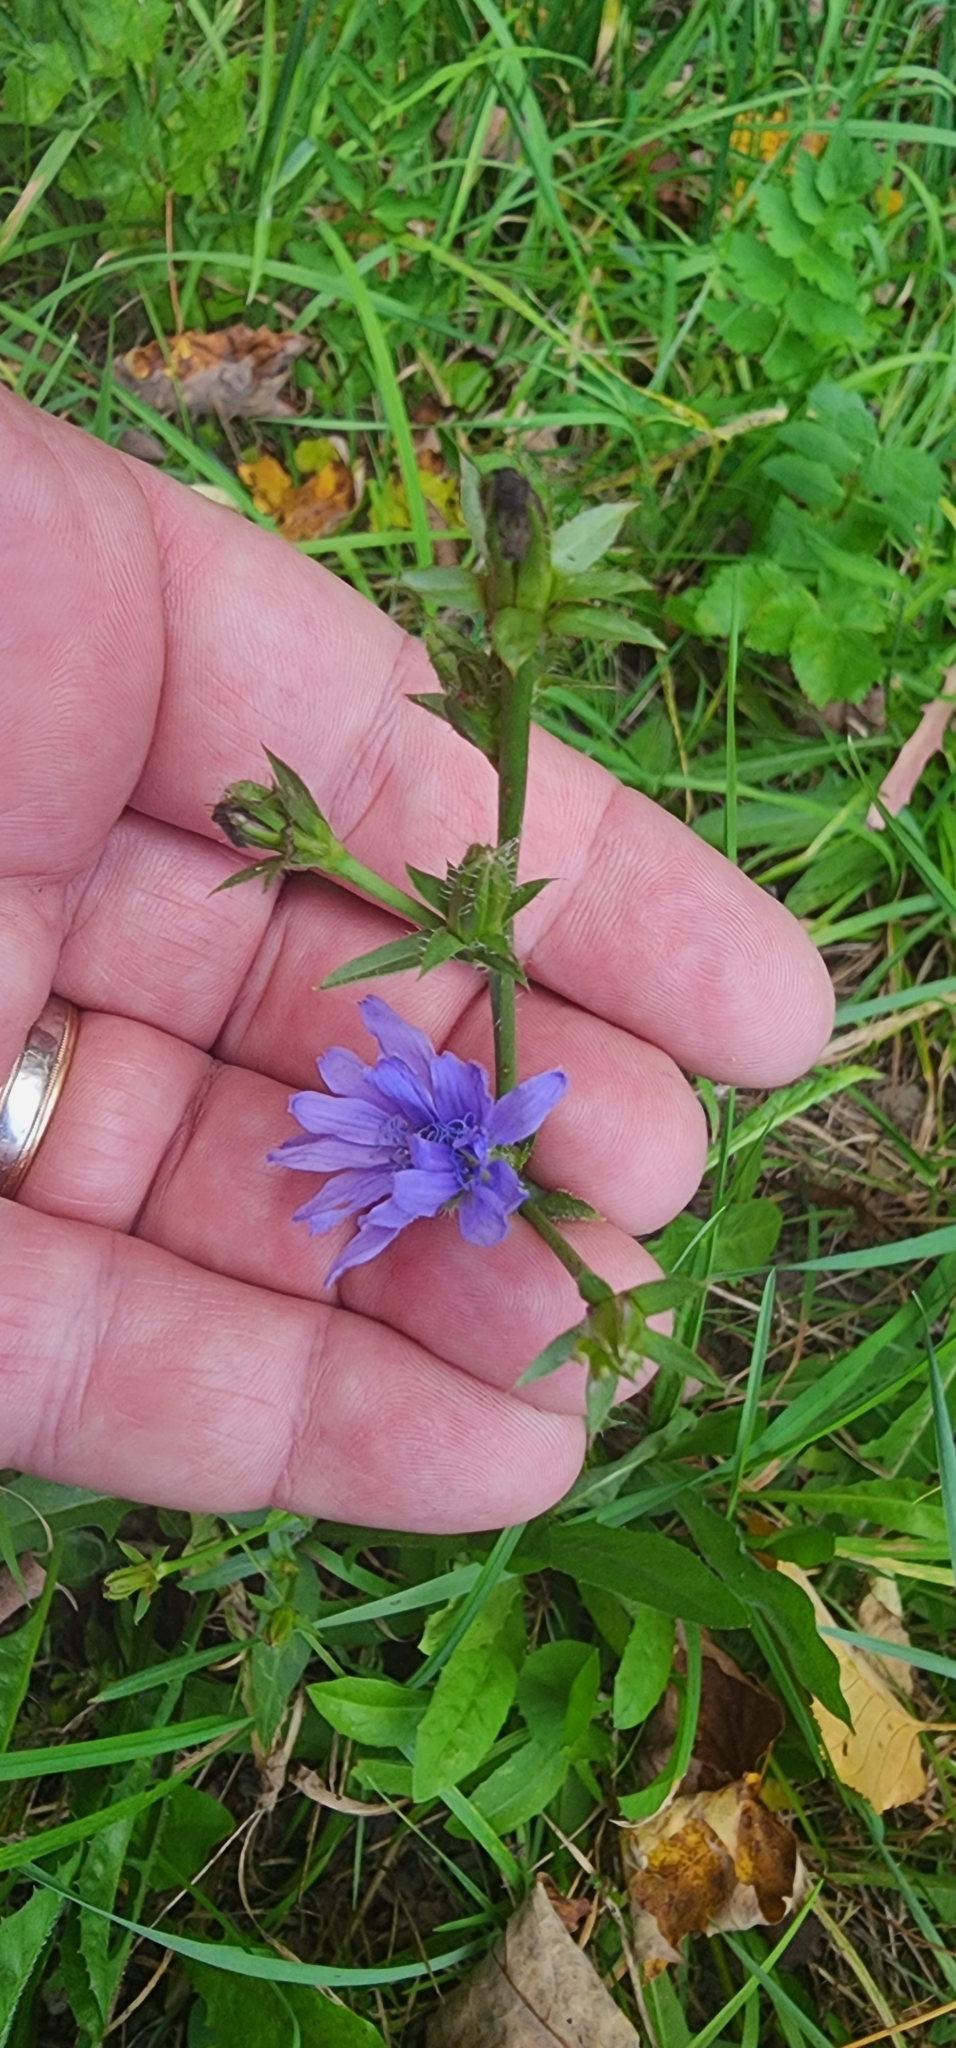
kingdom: Plantae
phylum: Tracheophyta
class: Magnoliopsida
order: Asterales
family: Asteraceae
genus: Cichorium
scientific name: Cichorium intybus
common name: Chicory
